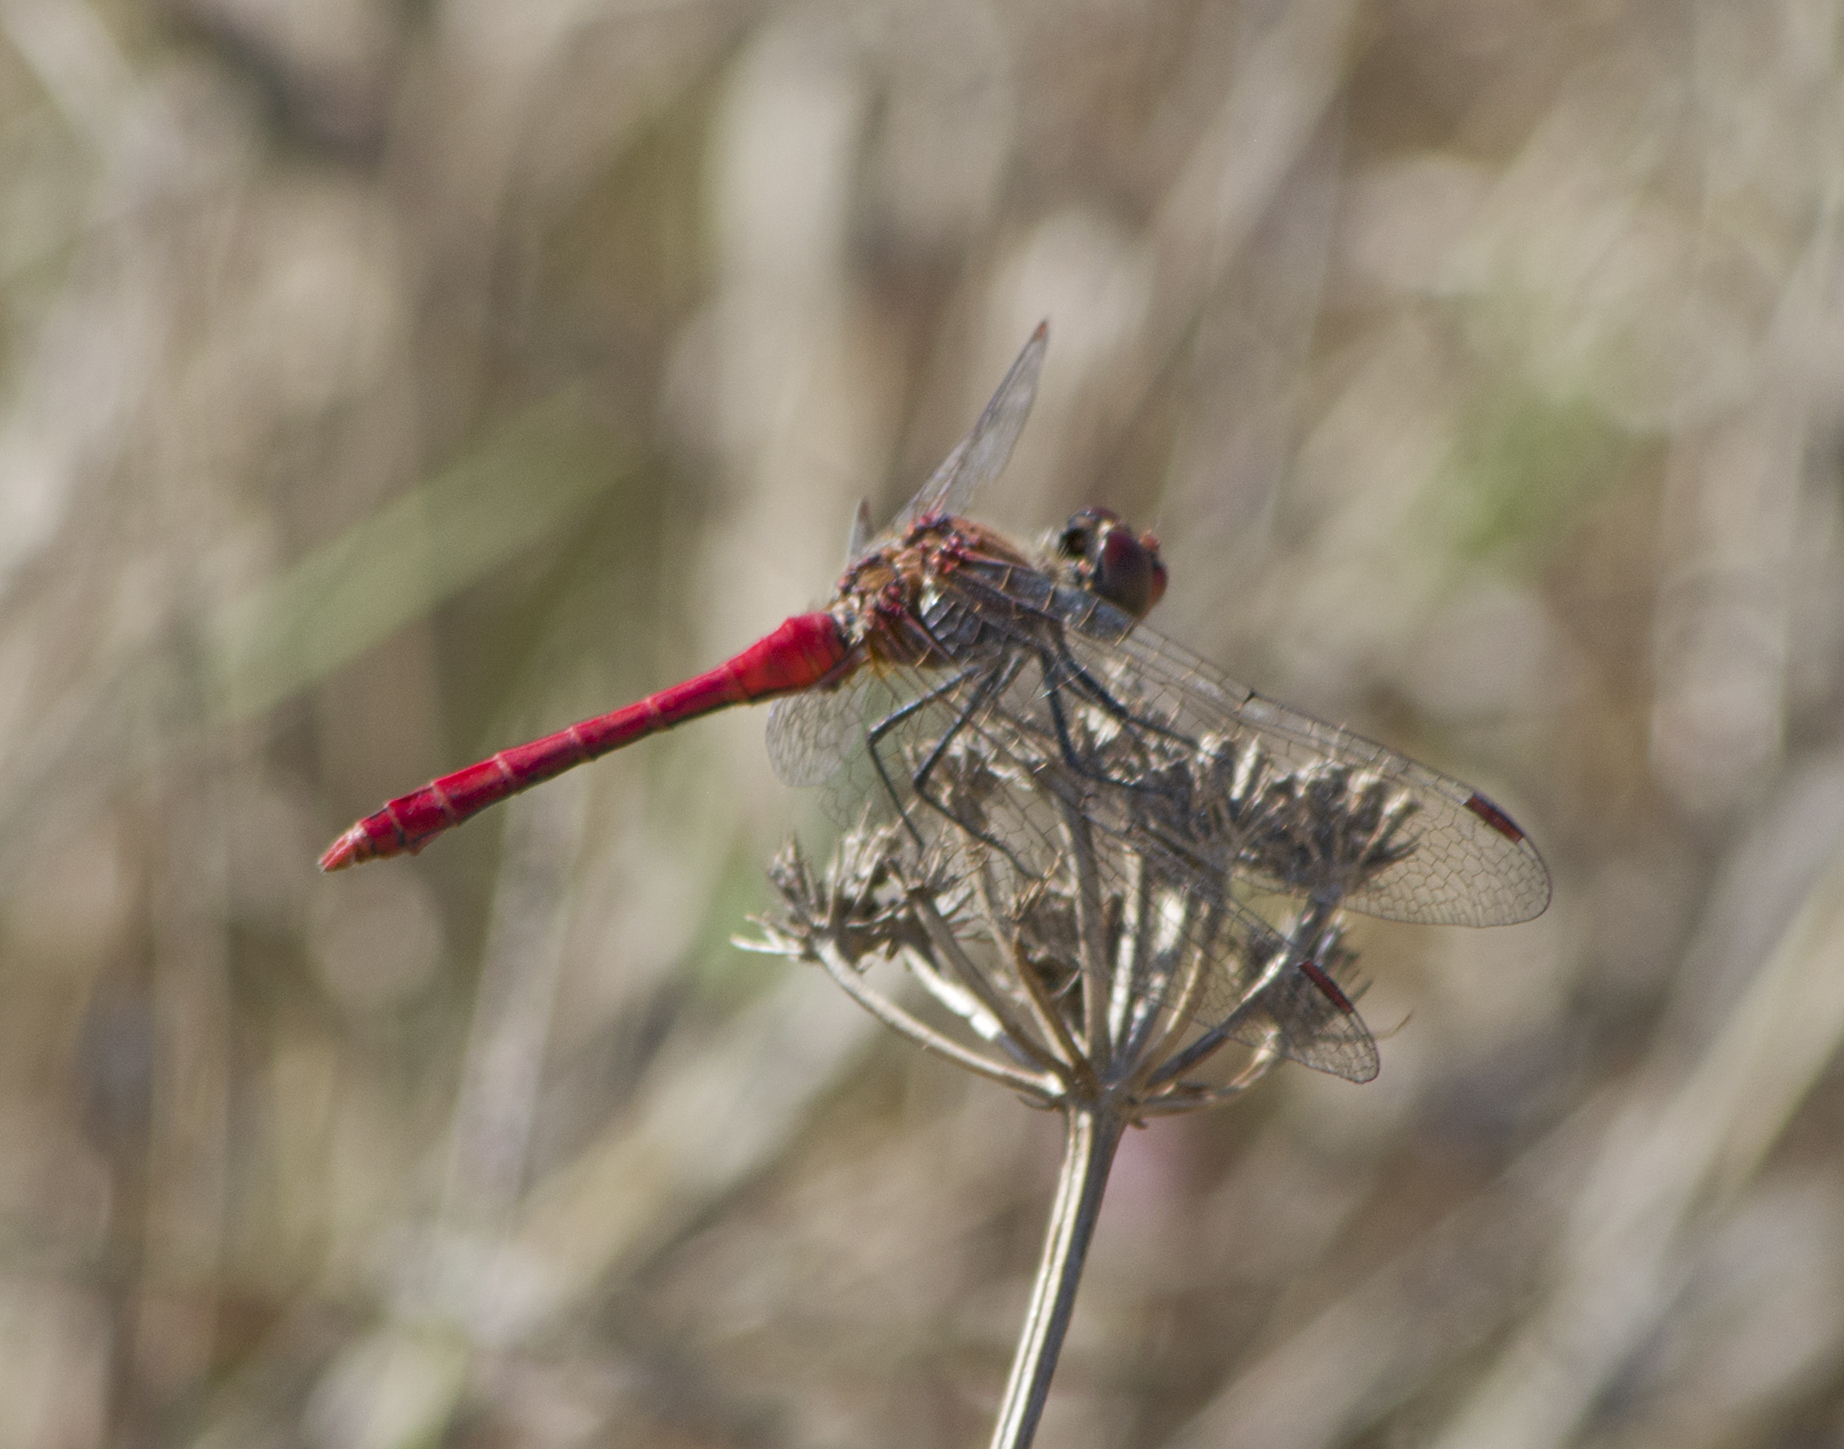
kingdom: Animalia
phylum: Arthropoda
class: Insecta
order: Odonata
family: Libellulidae
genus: Sympetrum
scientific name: Sympetrum sanguineum
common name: Ruddy darter
